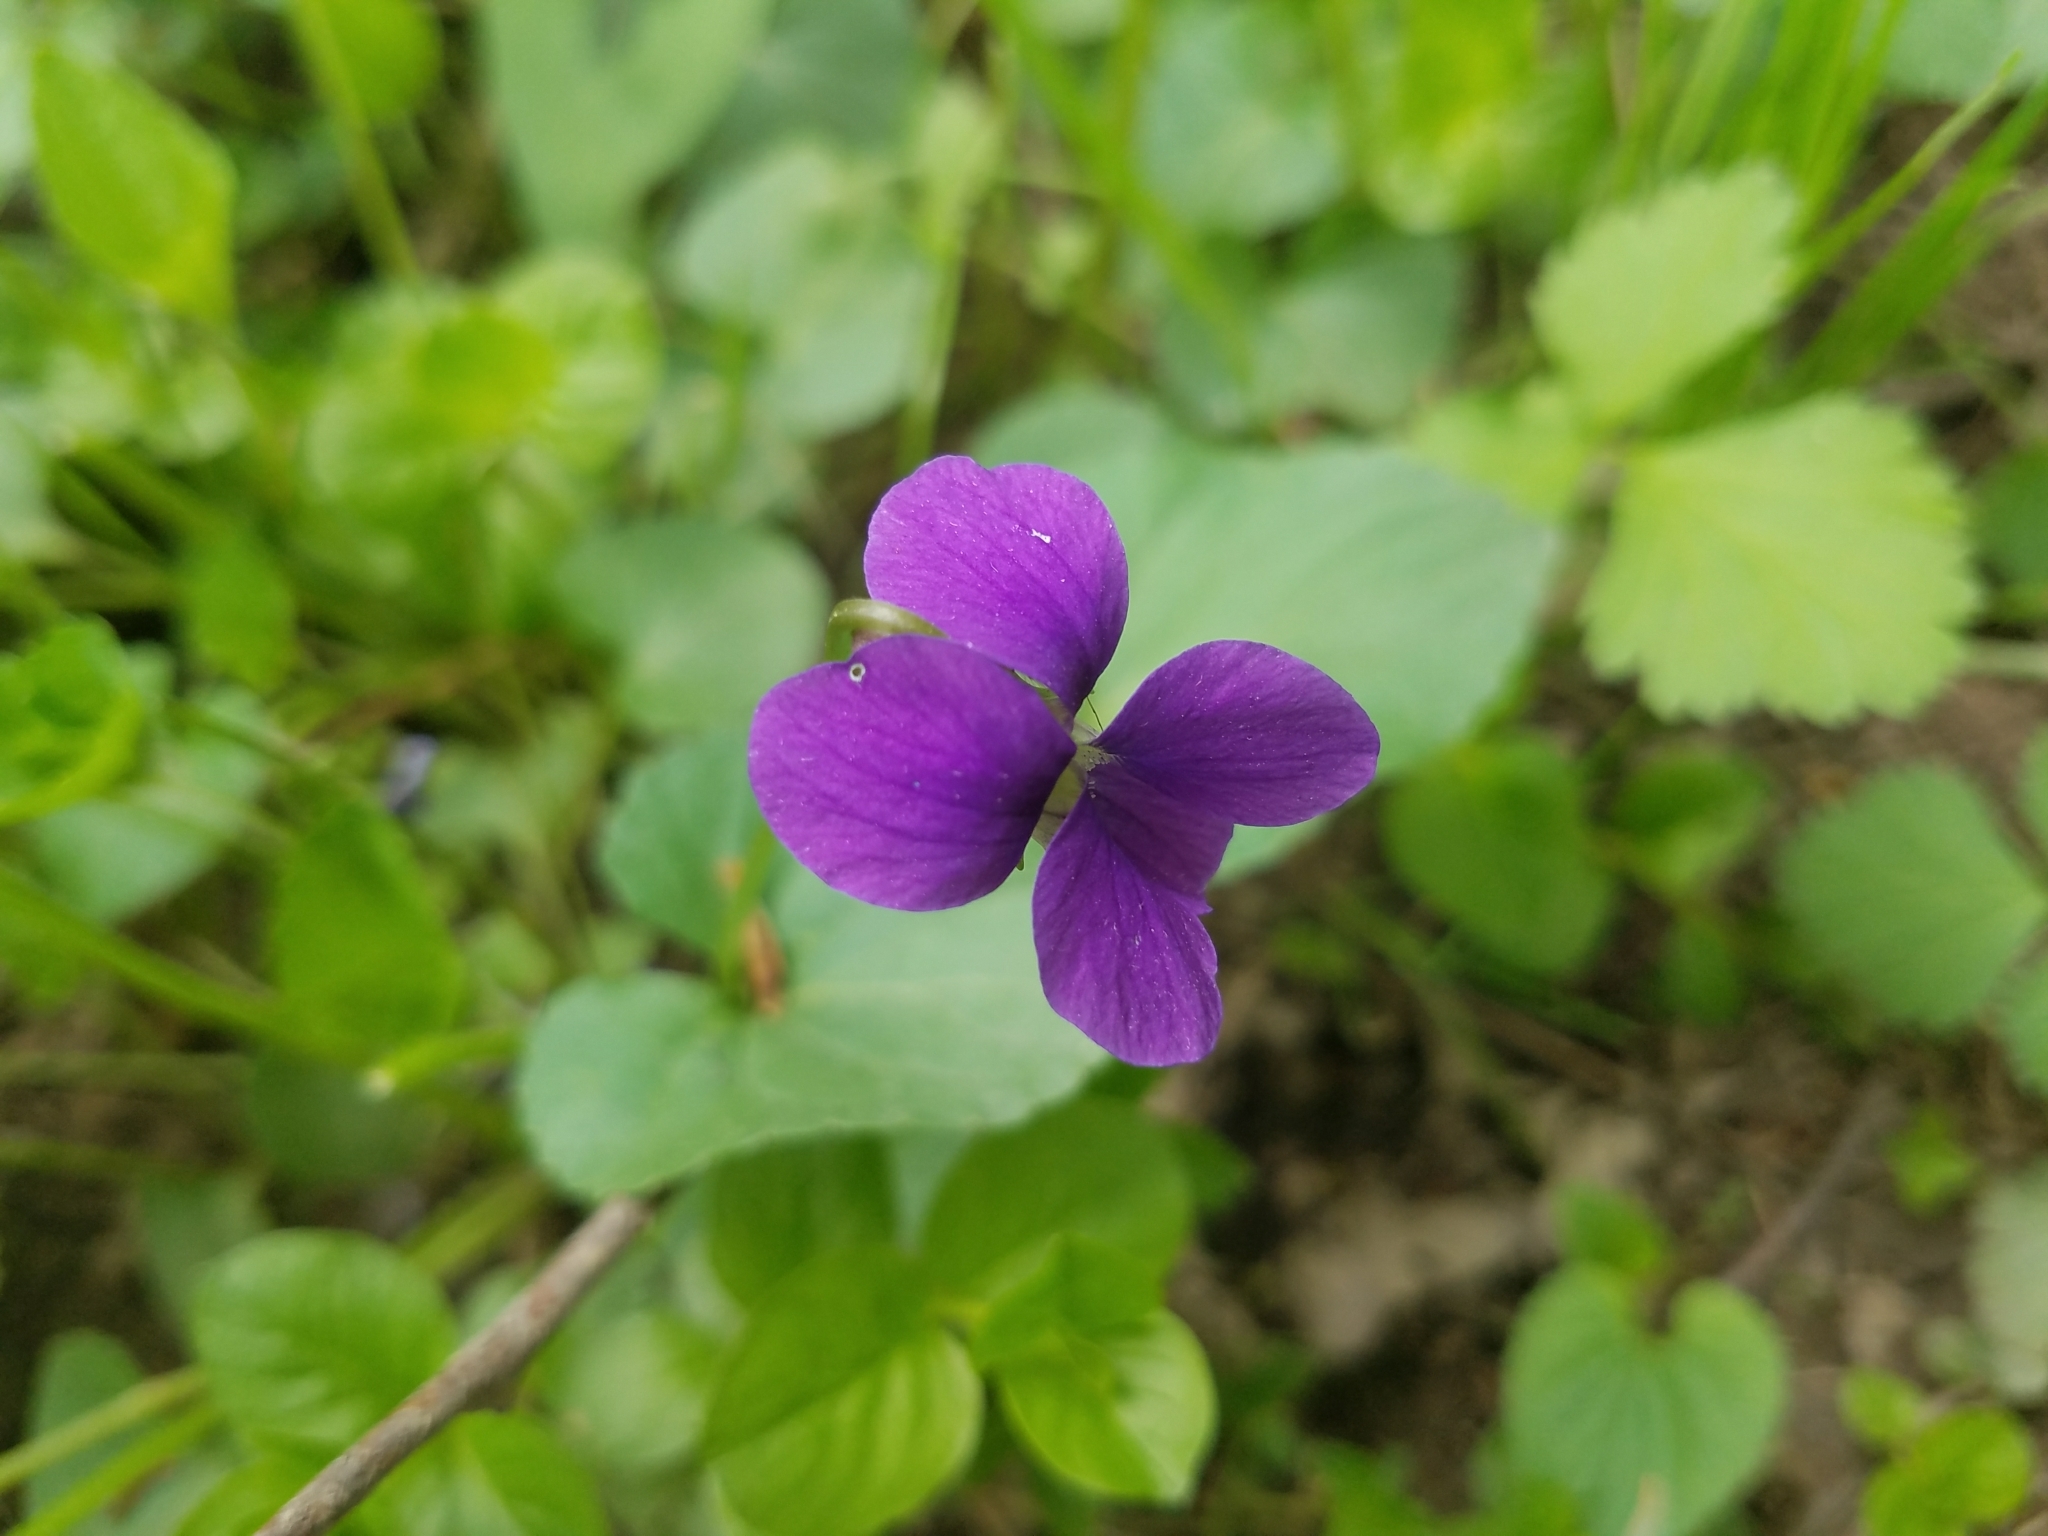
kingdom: Plantae
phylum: Tracheophyta
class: Magnoliopsida
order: Malpighiales
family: Violaceae
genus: Viola
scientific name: Viola sororia
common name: Dooryard violet
